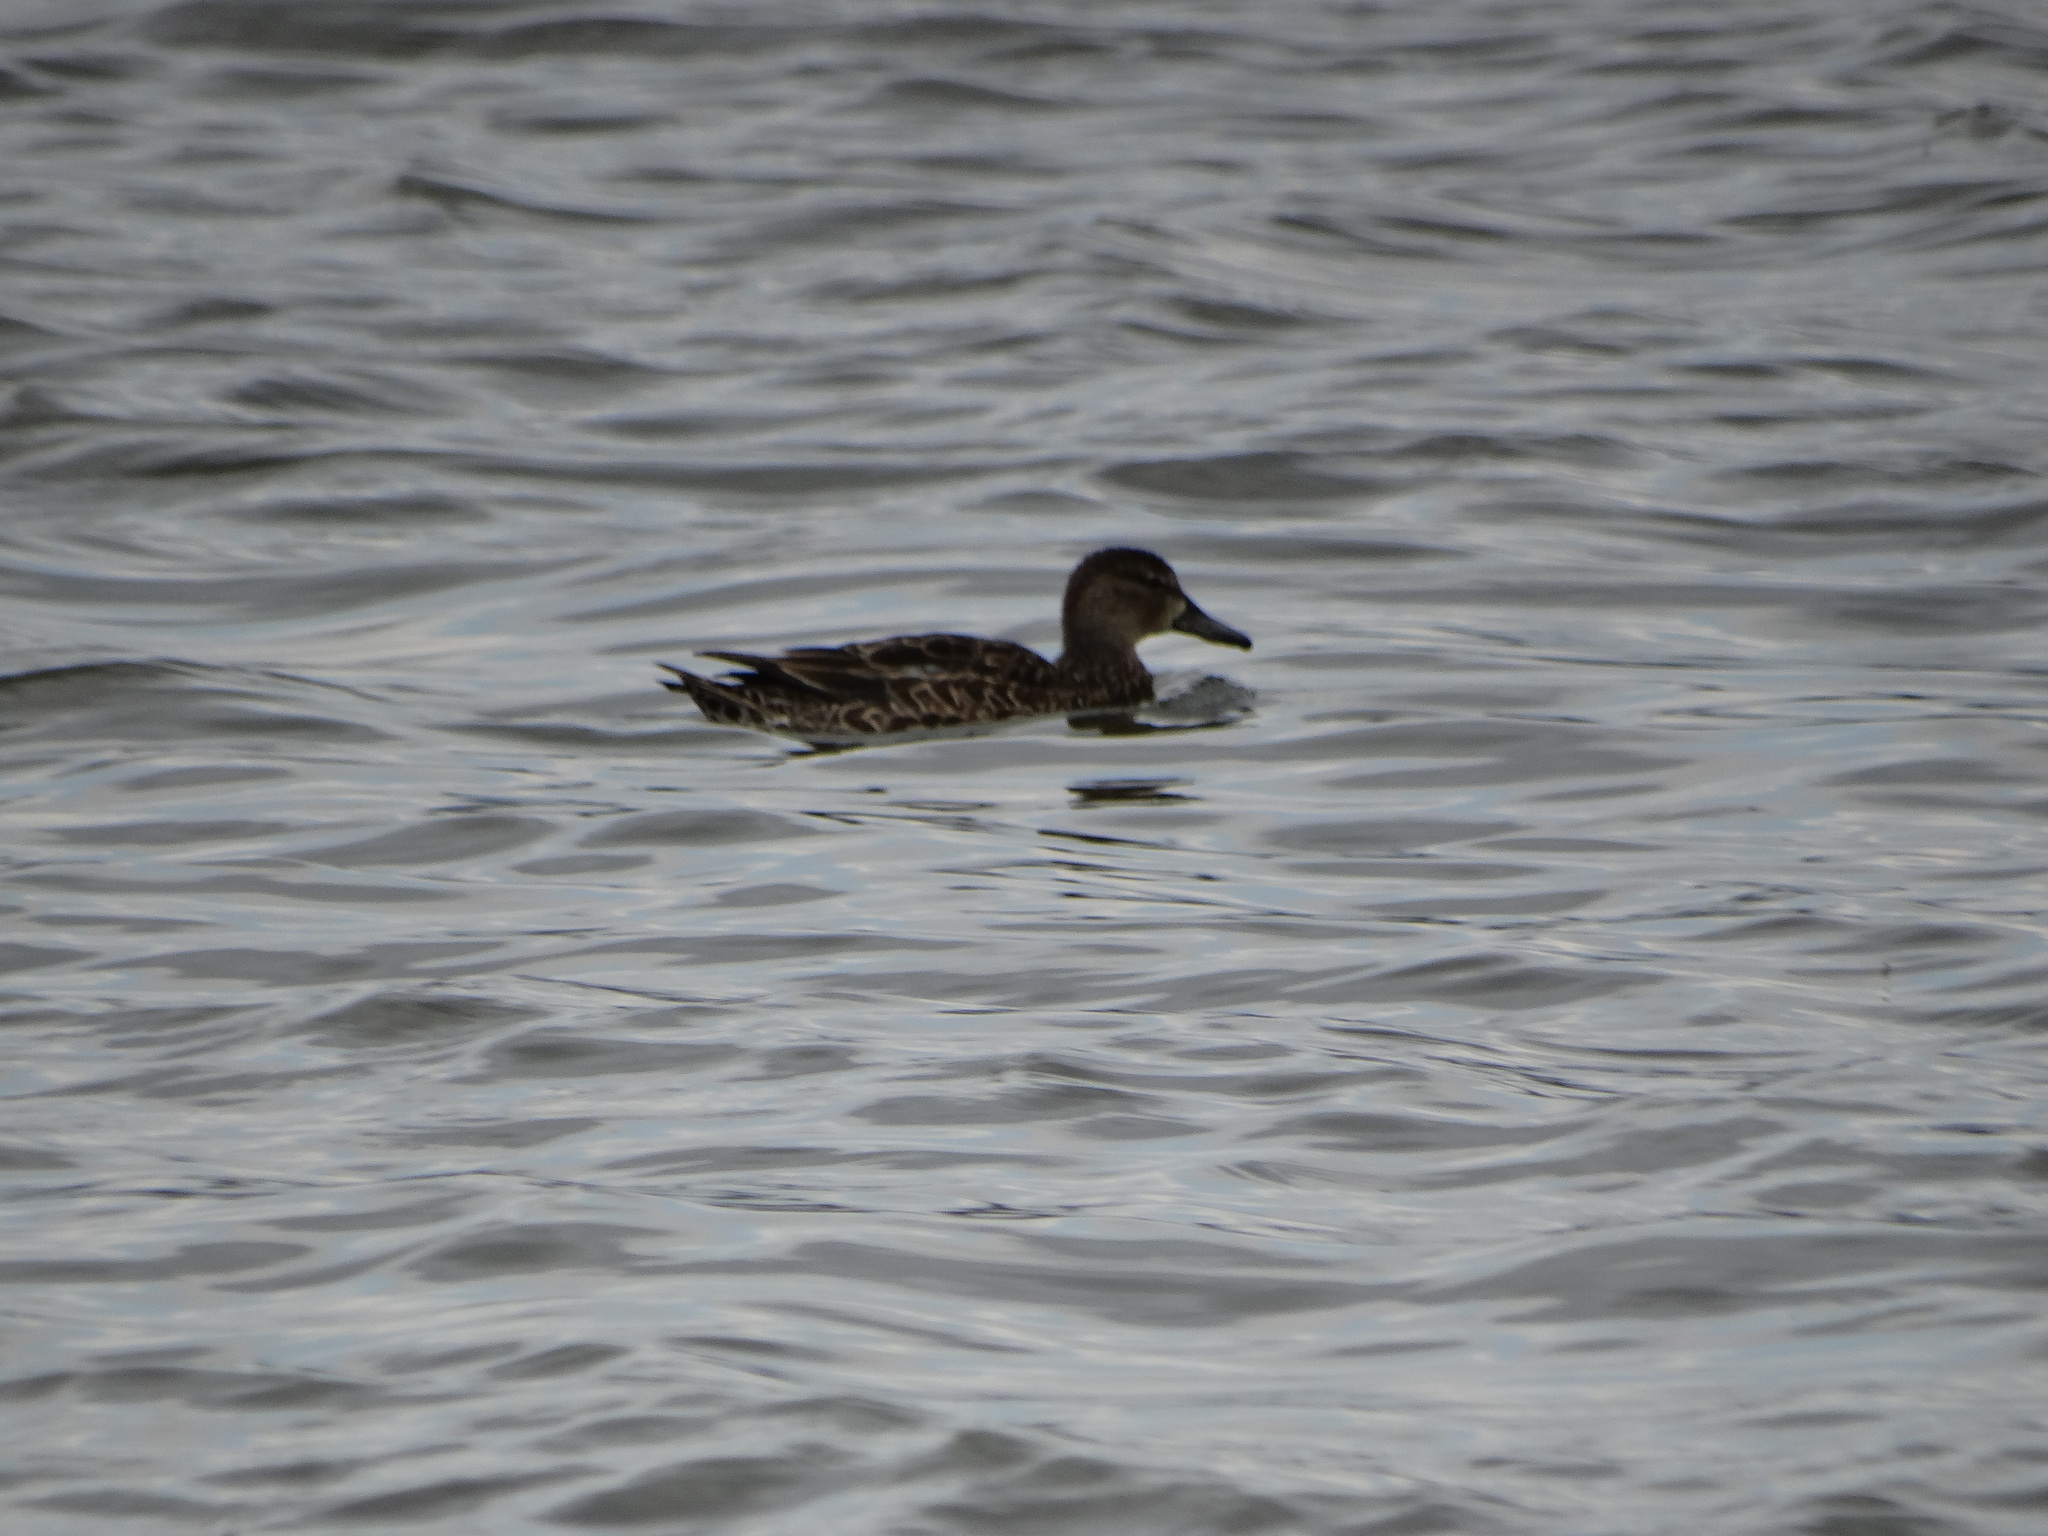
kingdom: Animalia
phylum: Chordata
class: Aves
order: Anseriformes
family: Anatidae
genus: Spatula
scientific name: Spatula discors
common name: Blue-winged teal
